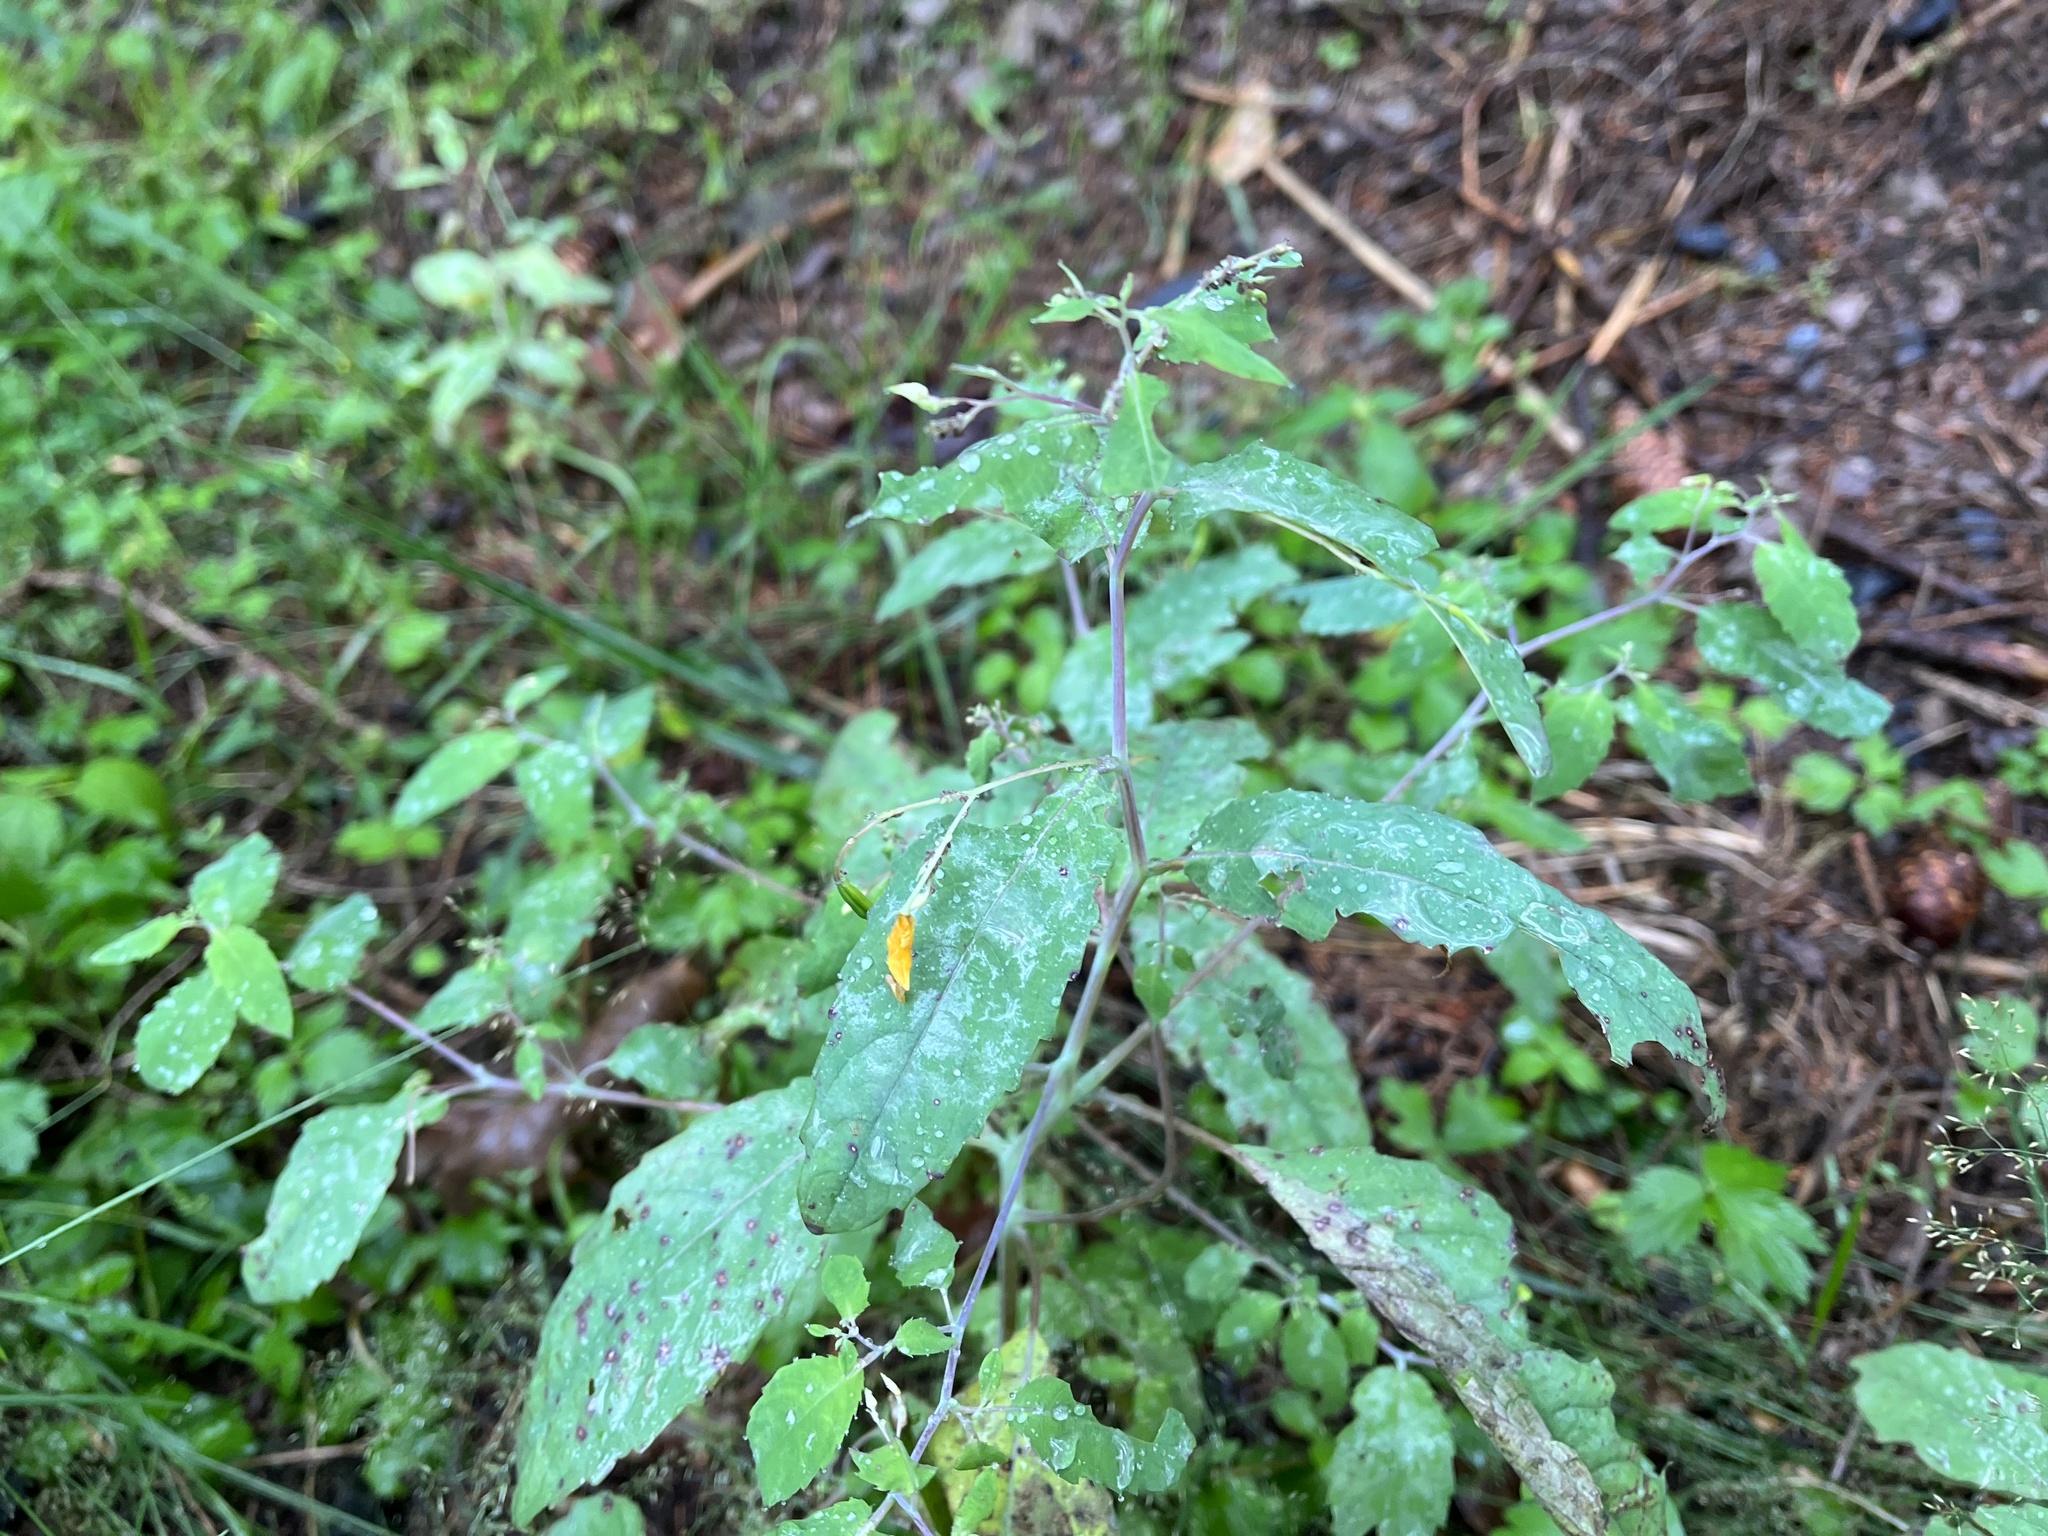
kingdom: Plantae
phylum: Tracheophyta
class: Magnoliopsida
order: Ericales
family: Balsaminaceae
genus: Impatiens
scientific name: Impatiens noli-tangere
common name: Touch-me-not balsam
